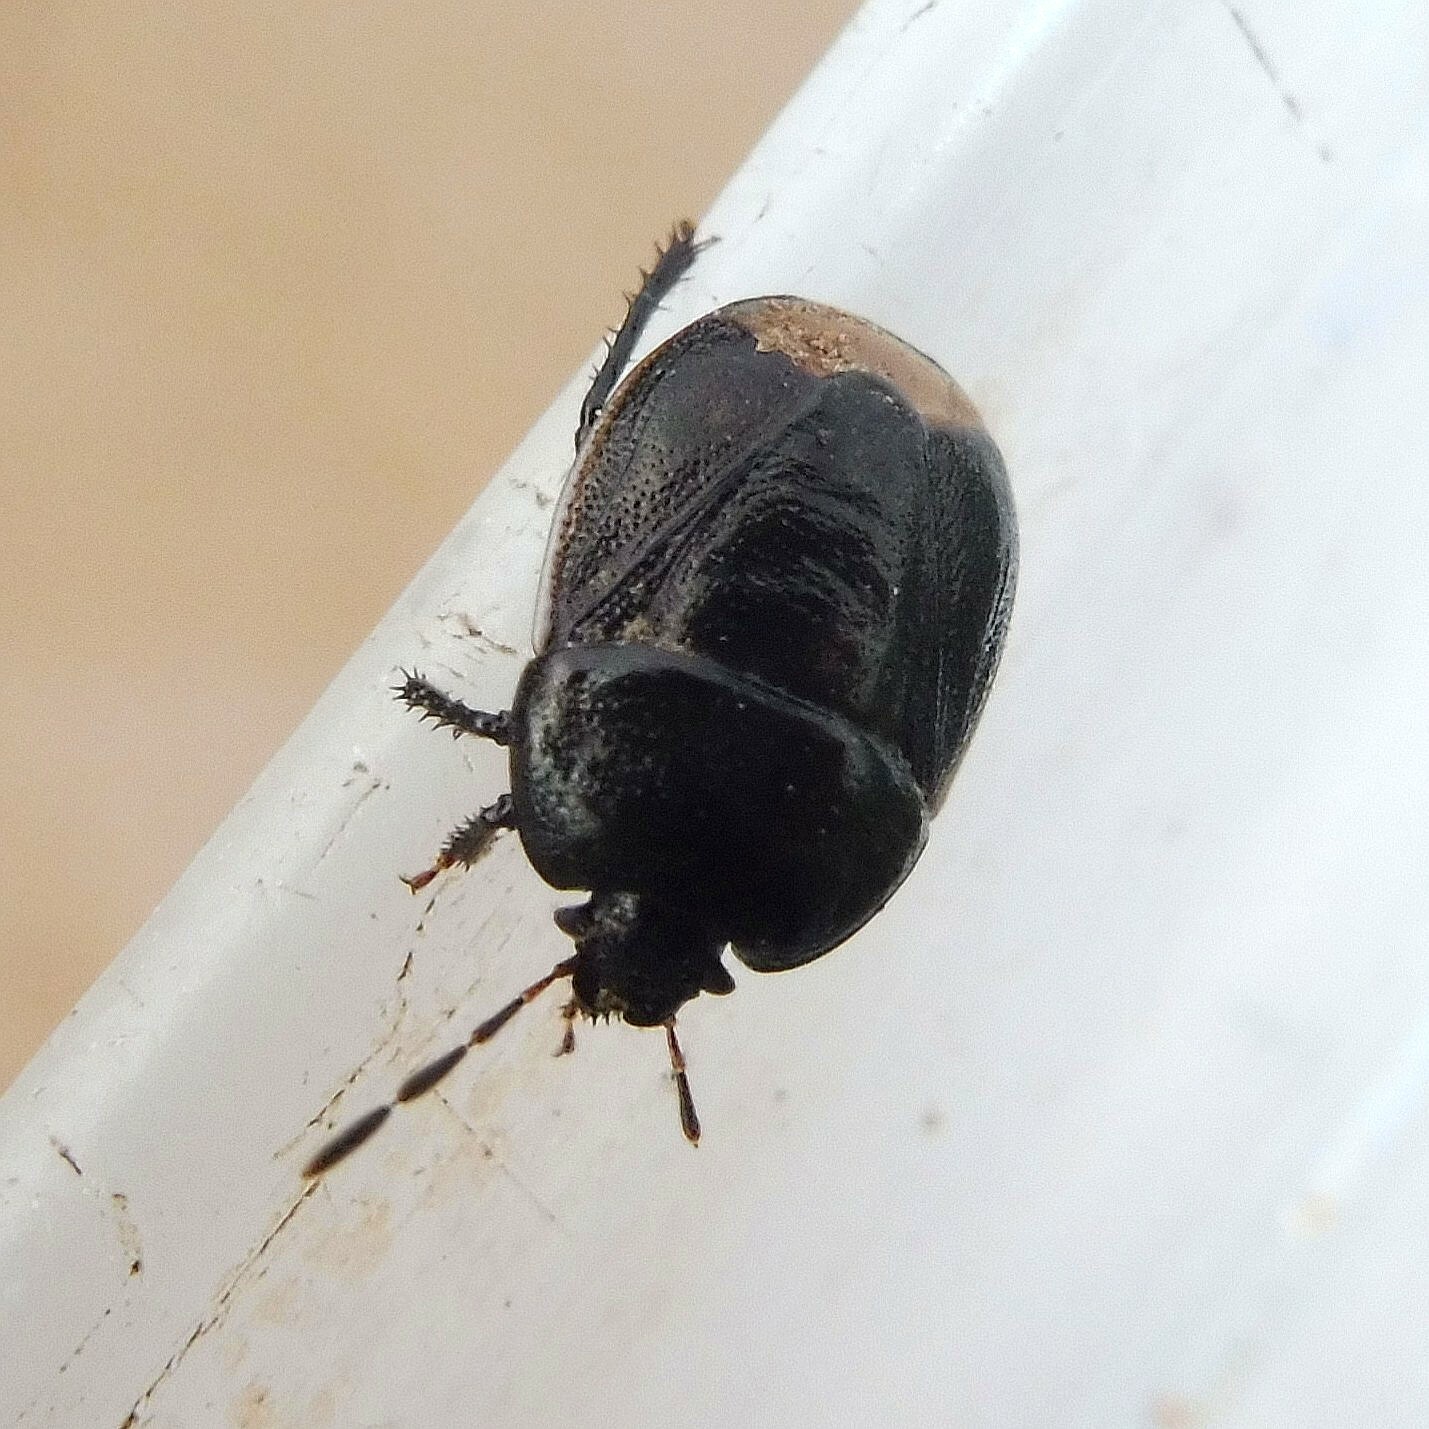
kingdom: Animalia
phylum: Arthropoda
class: Insecta
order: Hemiptera
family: Cydnidae
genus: Legnotus
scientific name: Legnotus limbosus
